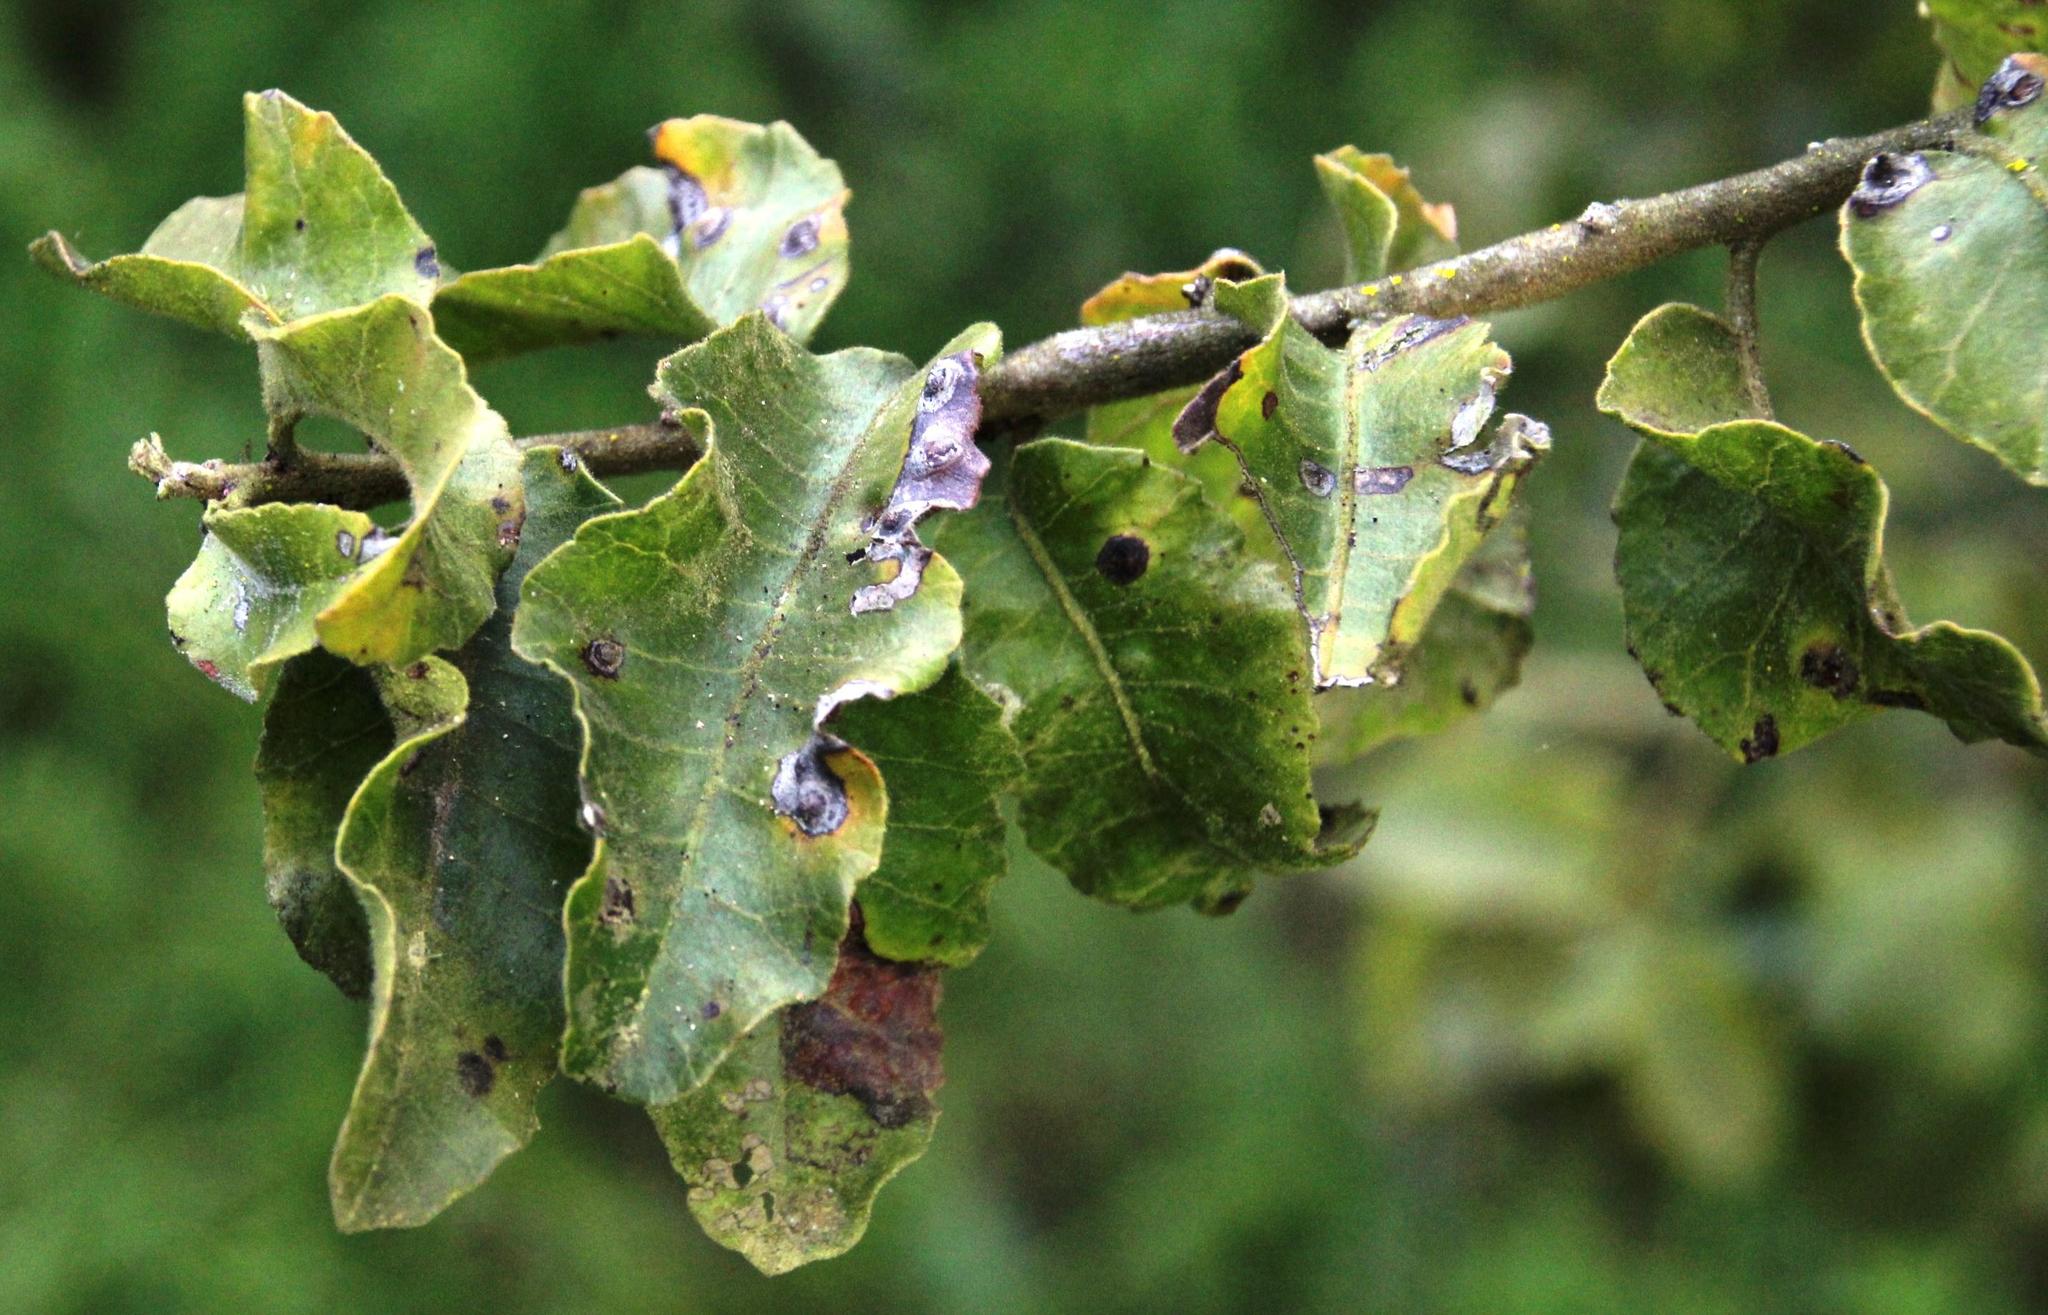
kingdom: Plantae
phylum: Tracheophyta
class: Magnoliopsida
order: Sapindales
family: Anacardiaceae
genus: Schinus
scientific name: Schinus latifolia
